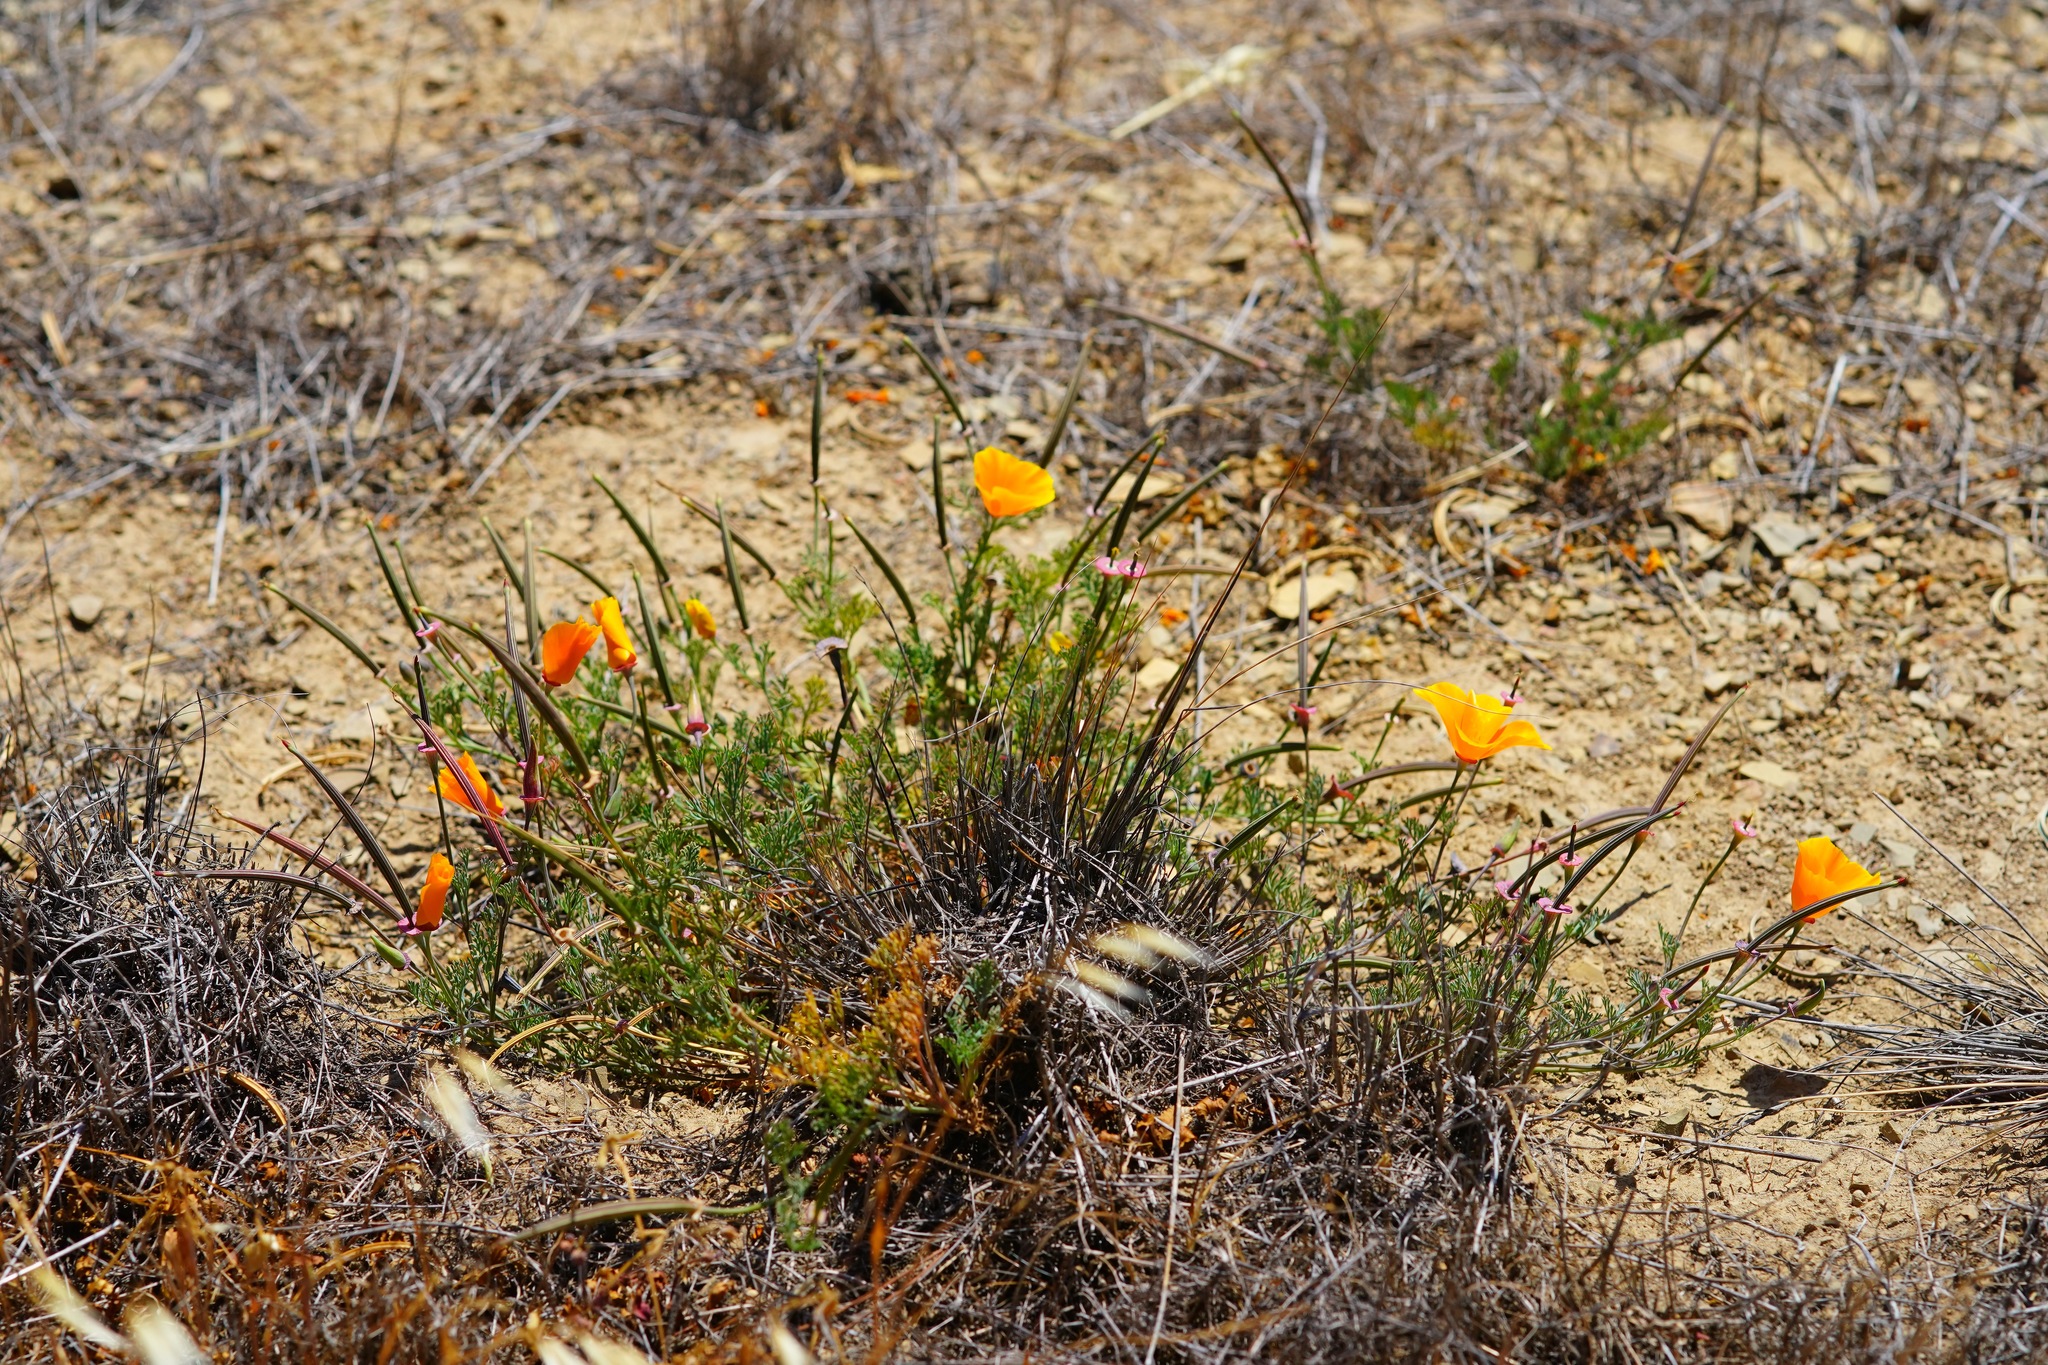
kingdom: Plantae
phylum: Tracheophyta
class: Magnoliopsida
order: Ranunculales
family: Papaveraceae
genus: Eschscholzia
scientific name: Eschscholzia californica
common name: California poppy
